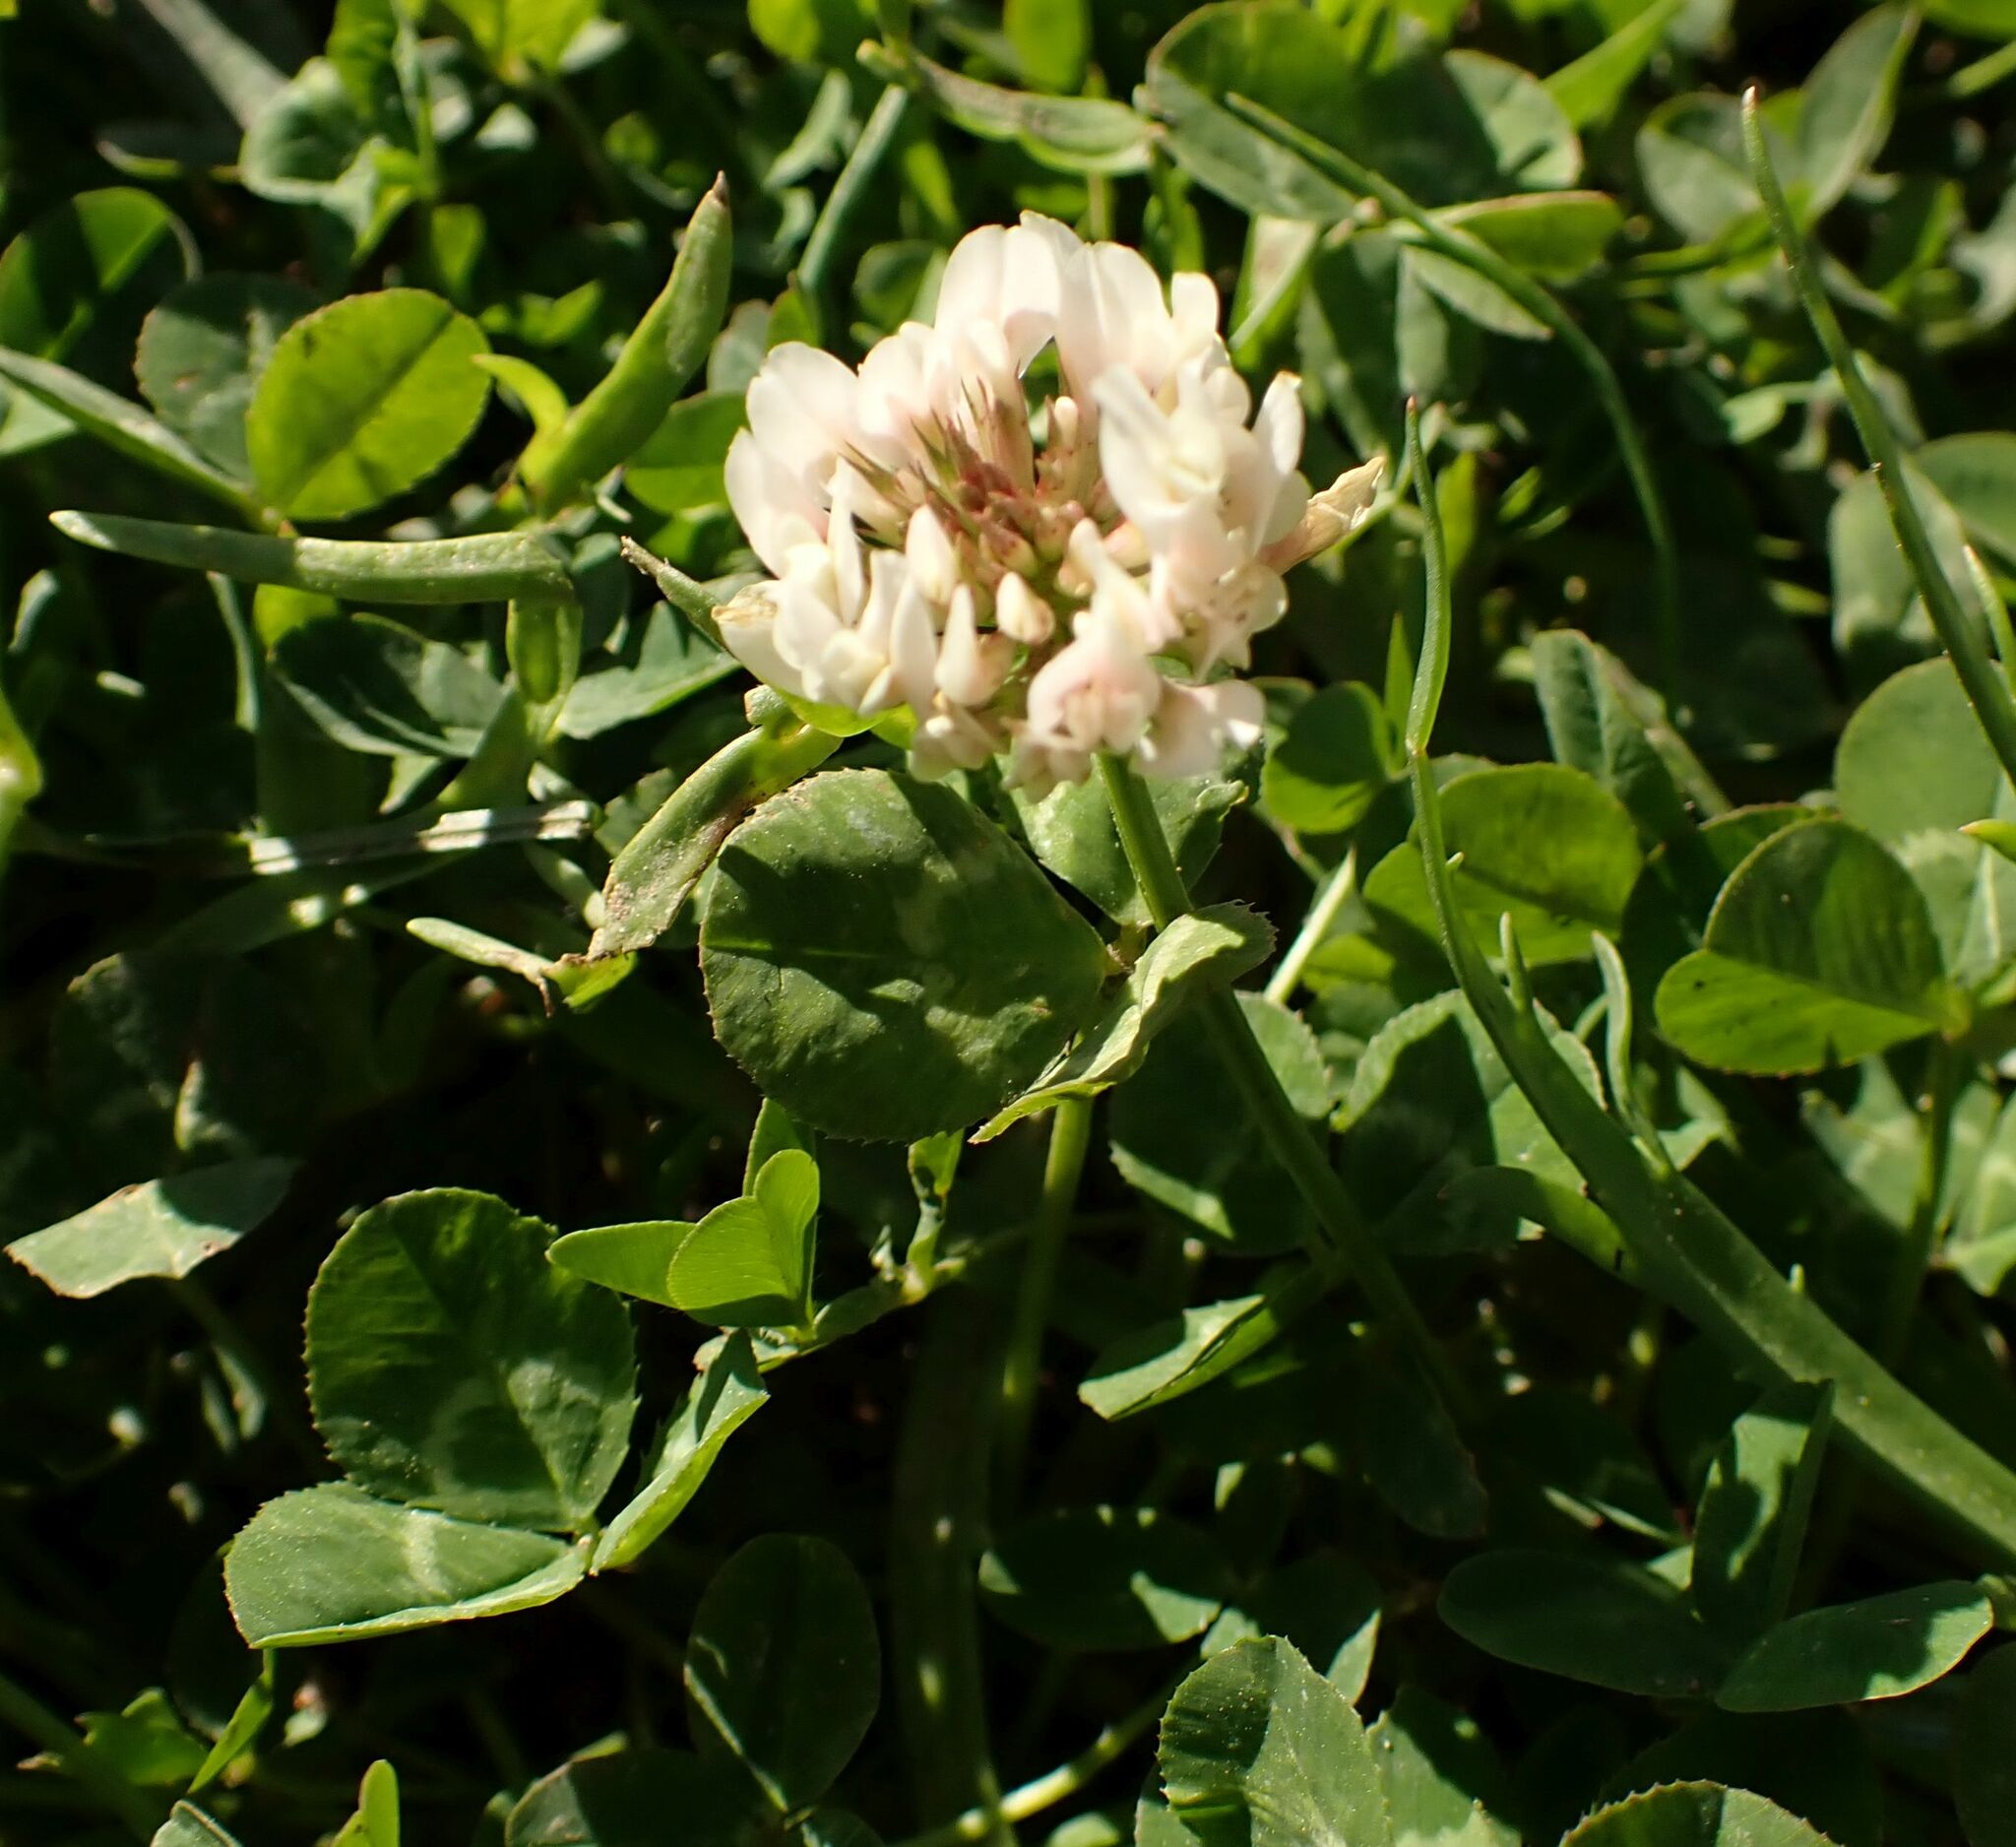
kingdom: Plantae
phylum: Tracheophyta
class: Magnoliopsida
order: Fabales
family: Fabaceae
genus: Trifolium
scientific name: Trifolium repens
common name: White clover
